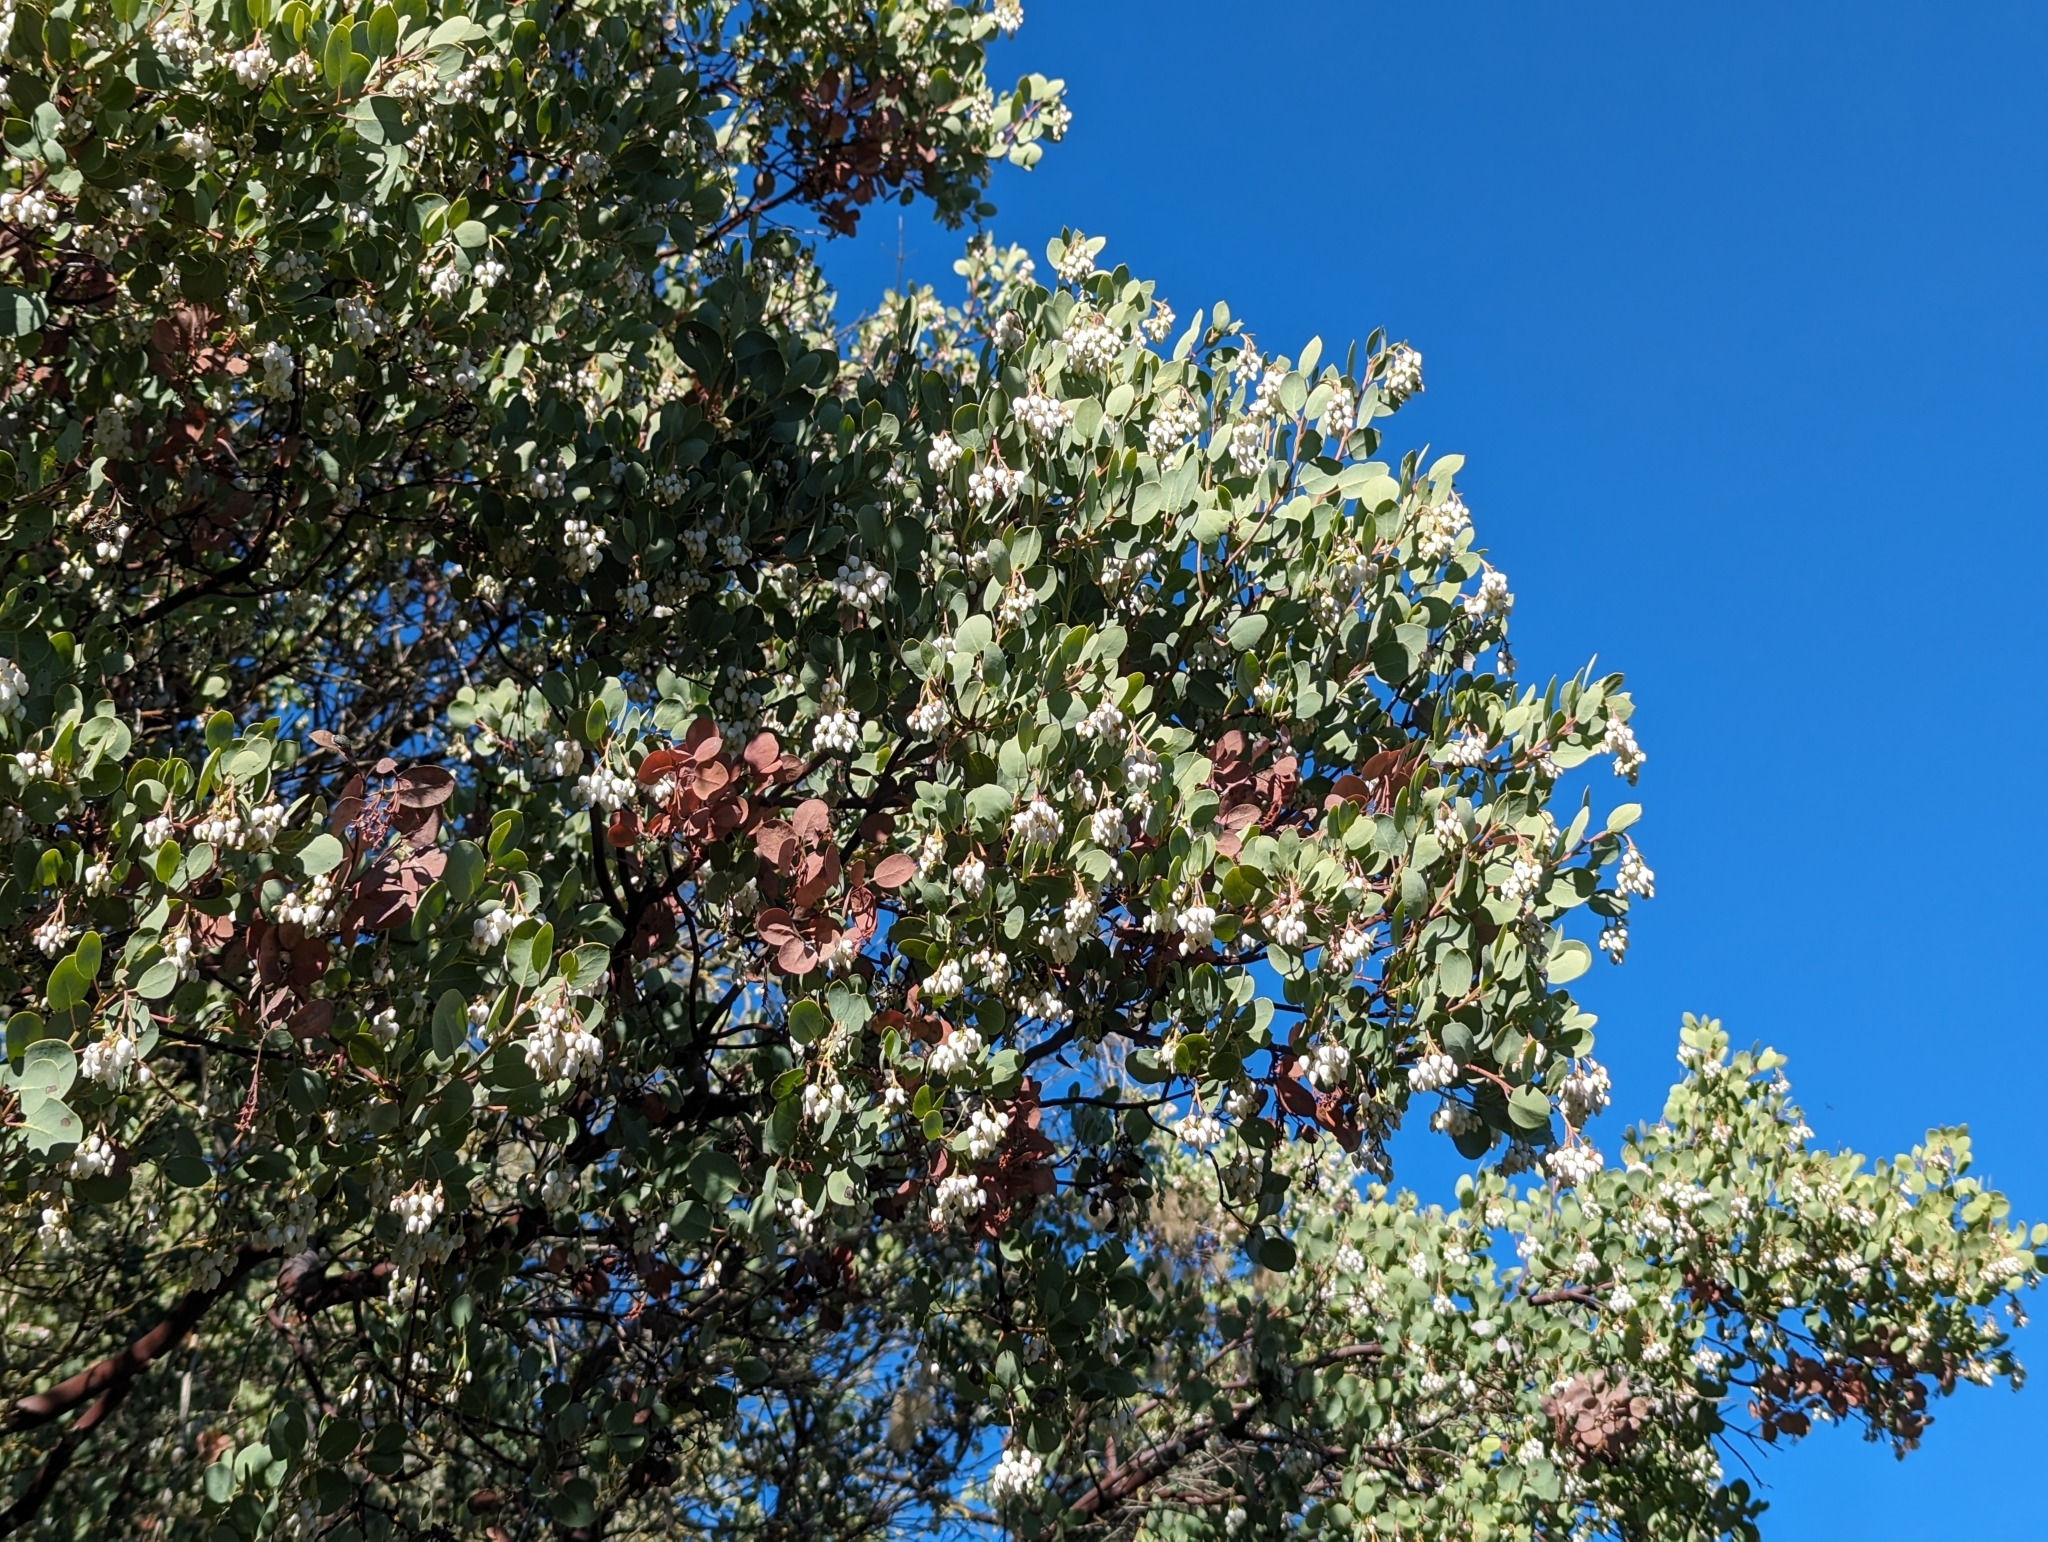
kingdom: Plantae
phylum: Tracheophyta
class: Magnoliopsida
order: Ericales
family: Ericaceae
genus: Arctostaphylos
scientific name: Arctostaphylos glauca
